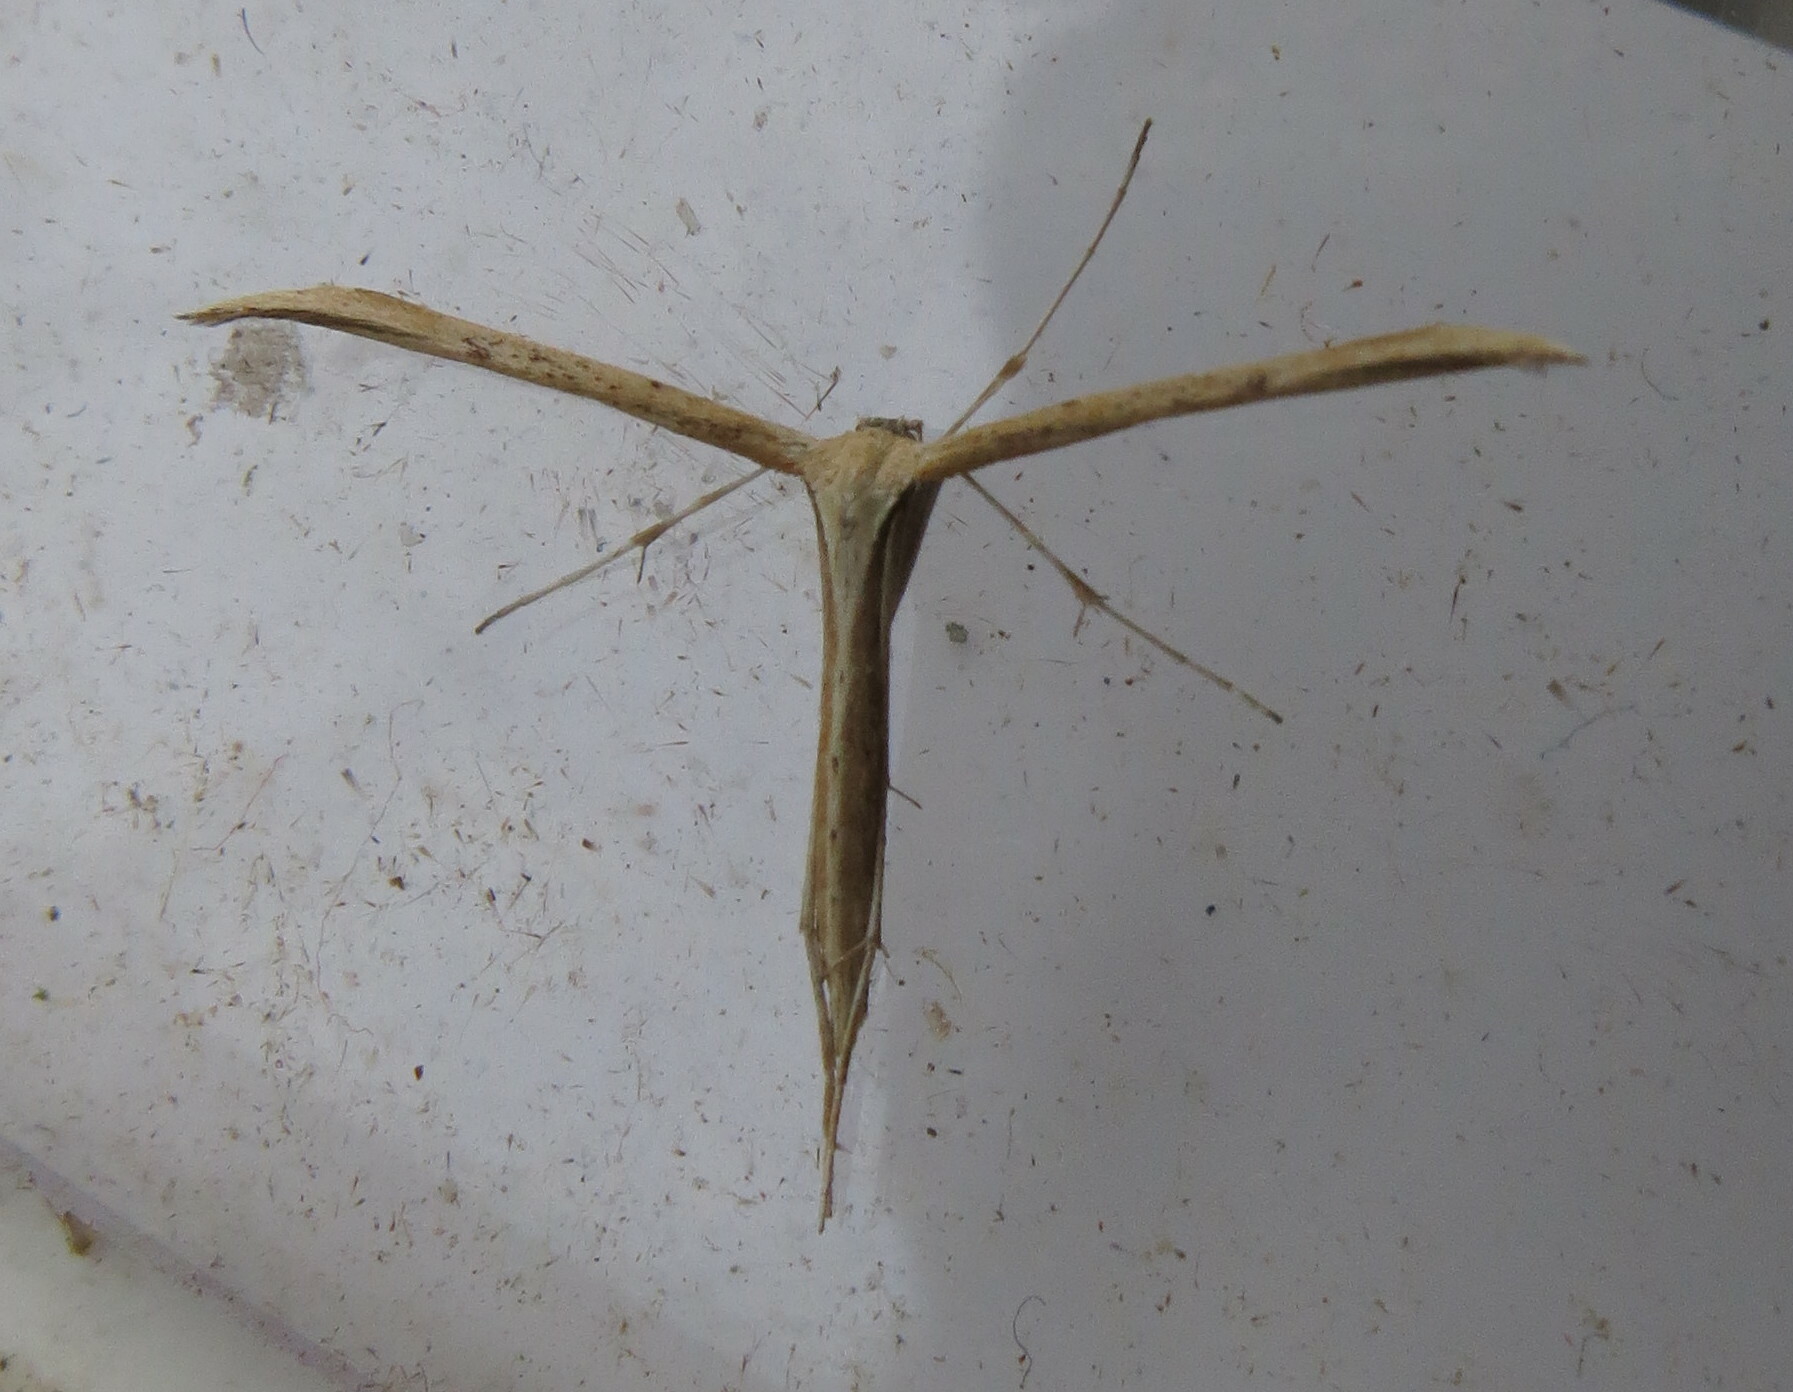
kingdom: Animalia
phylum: Arthropoda
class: Insecta
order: Lepidoptera
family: Pterophoridae
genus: Emmelina
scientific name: Emmelina monodactyla
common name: Common plume
